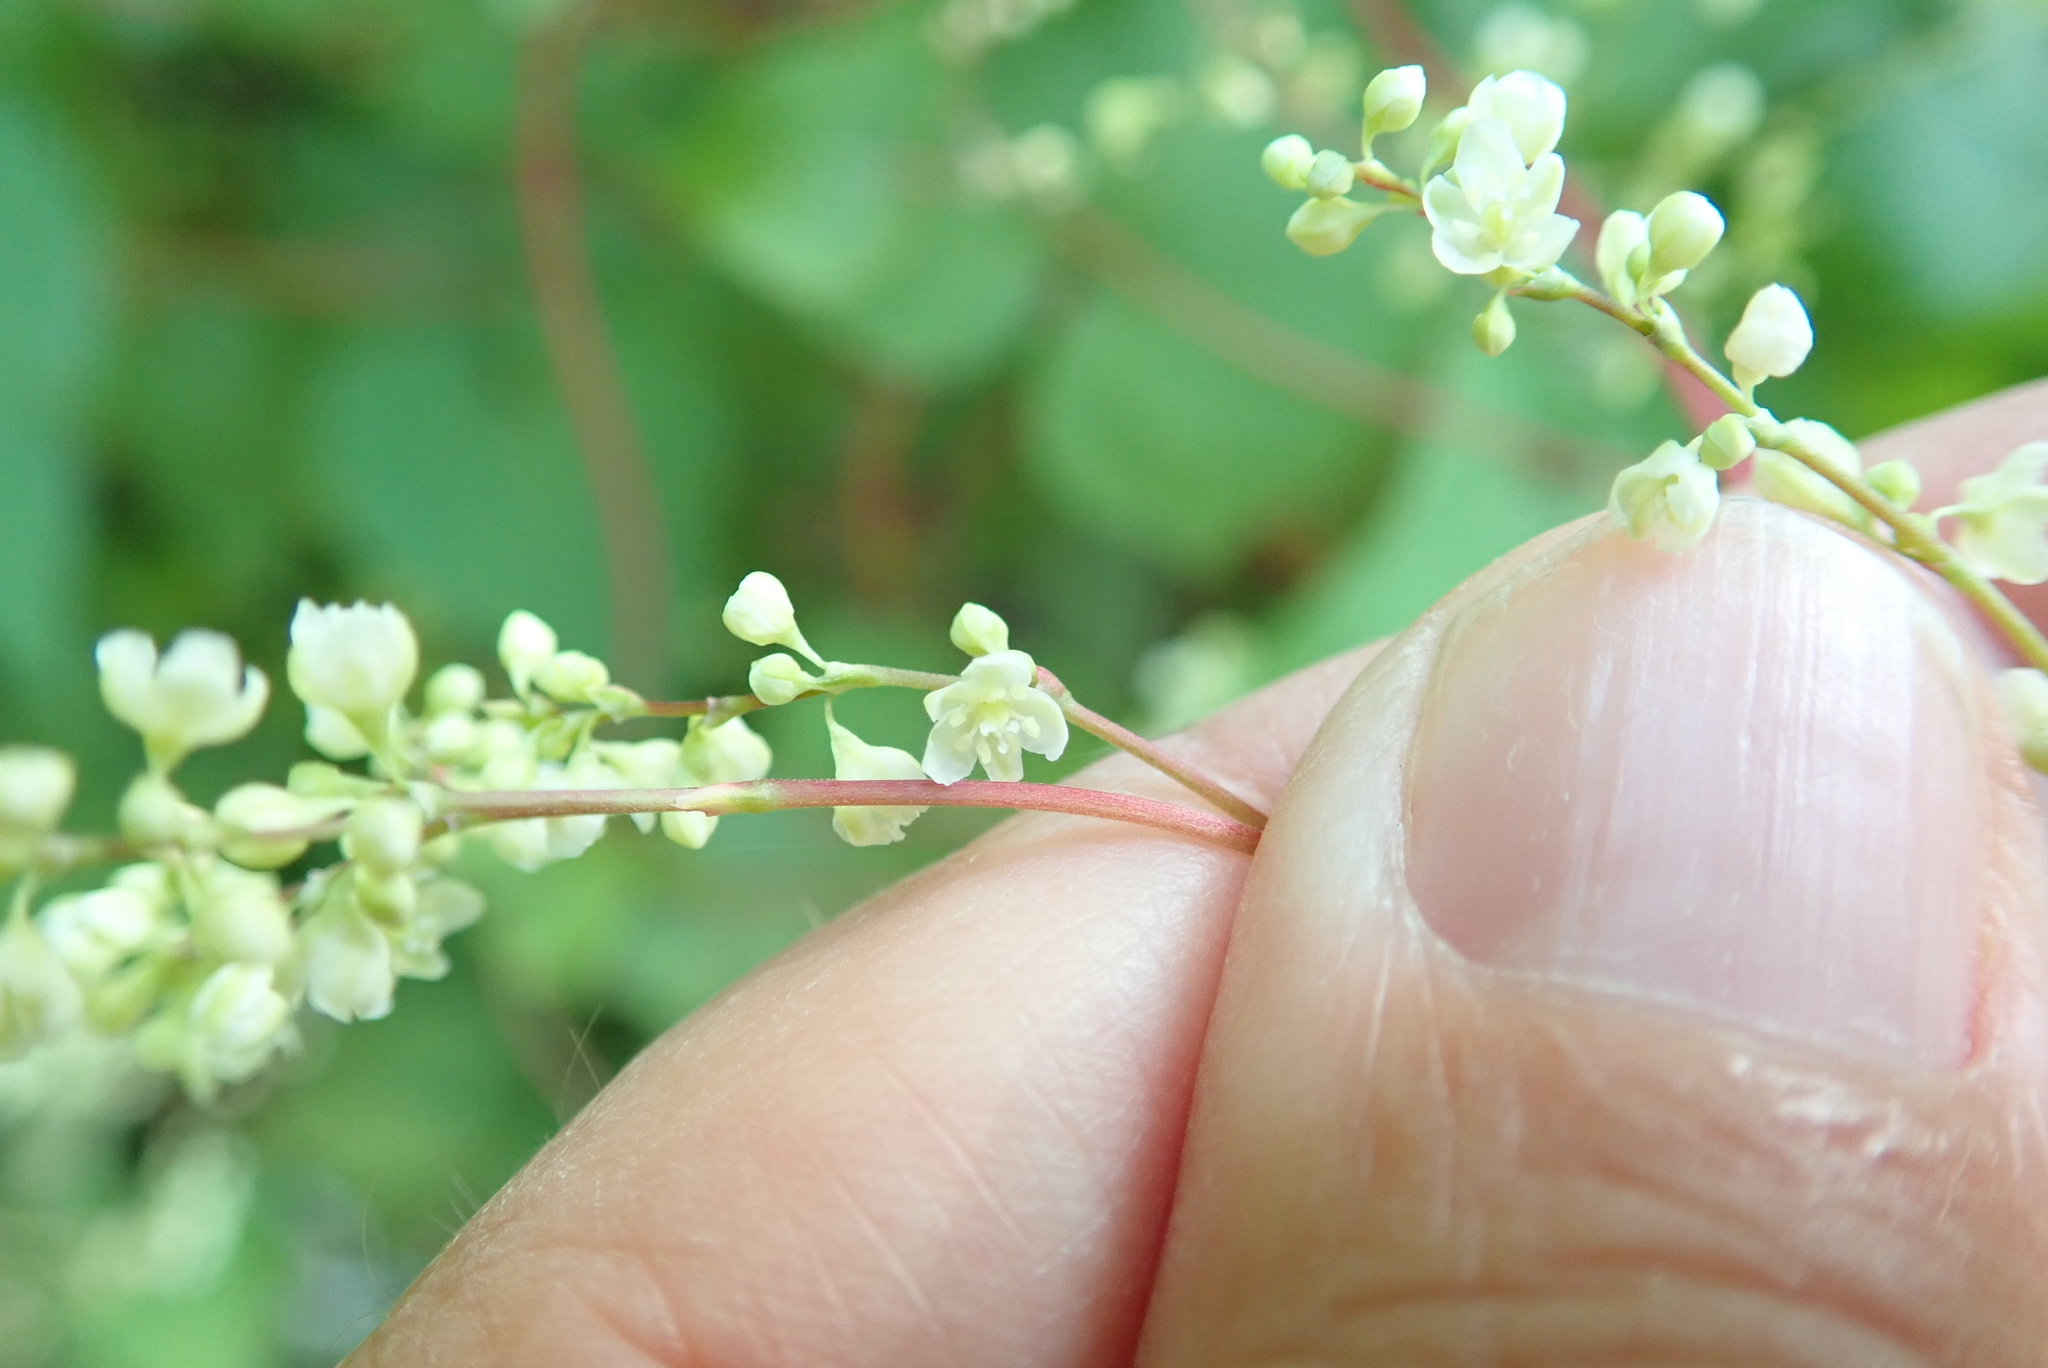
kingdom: Plantae
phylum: Tracheophyta
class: Magnoliopsida
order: Caryophyllales
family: Polygonaceae
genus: Parogonum
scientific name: Parogonum ciliinode
